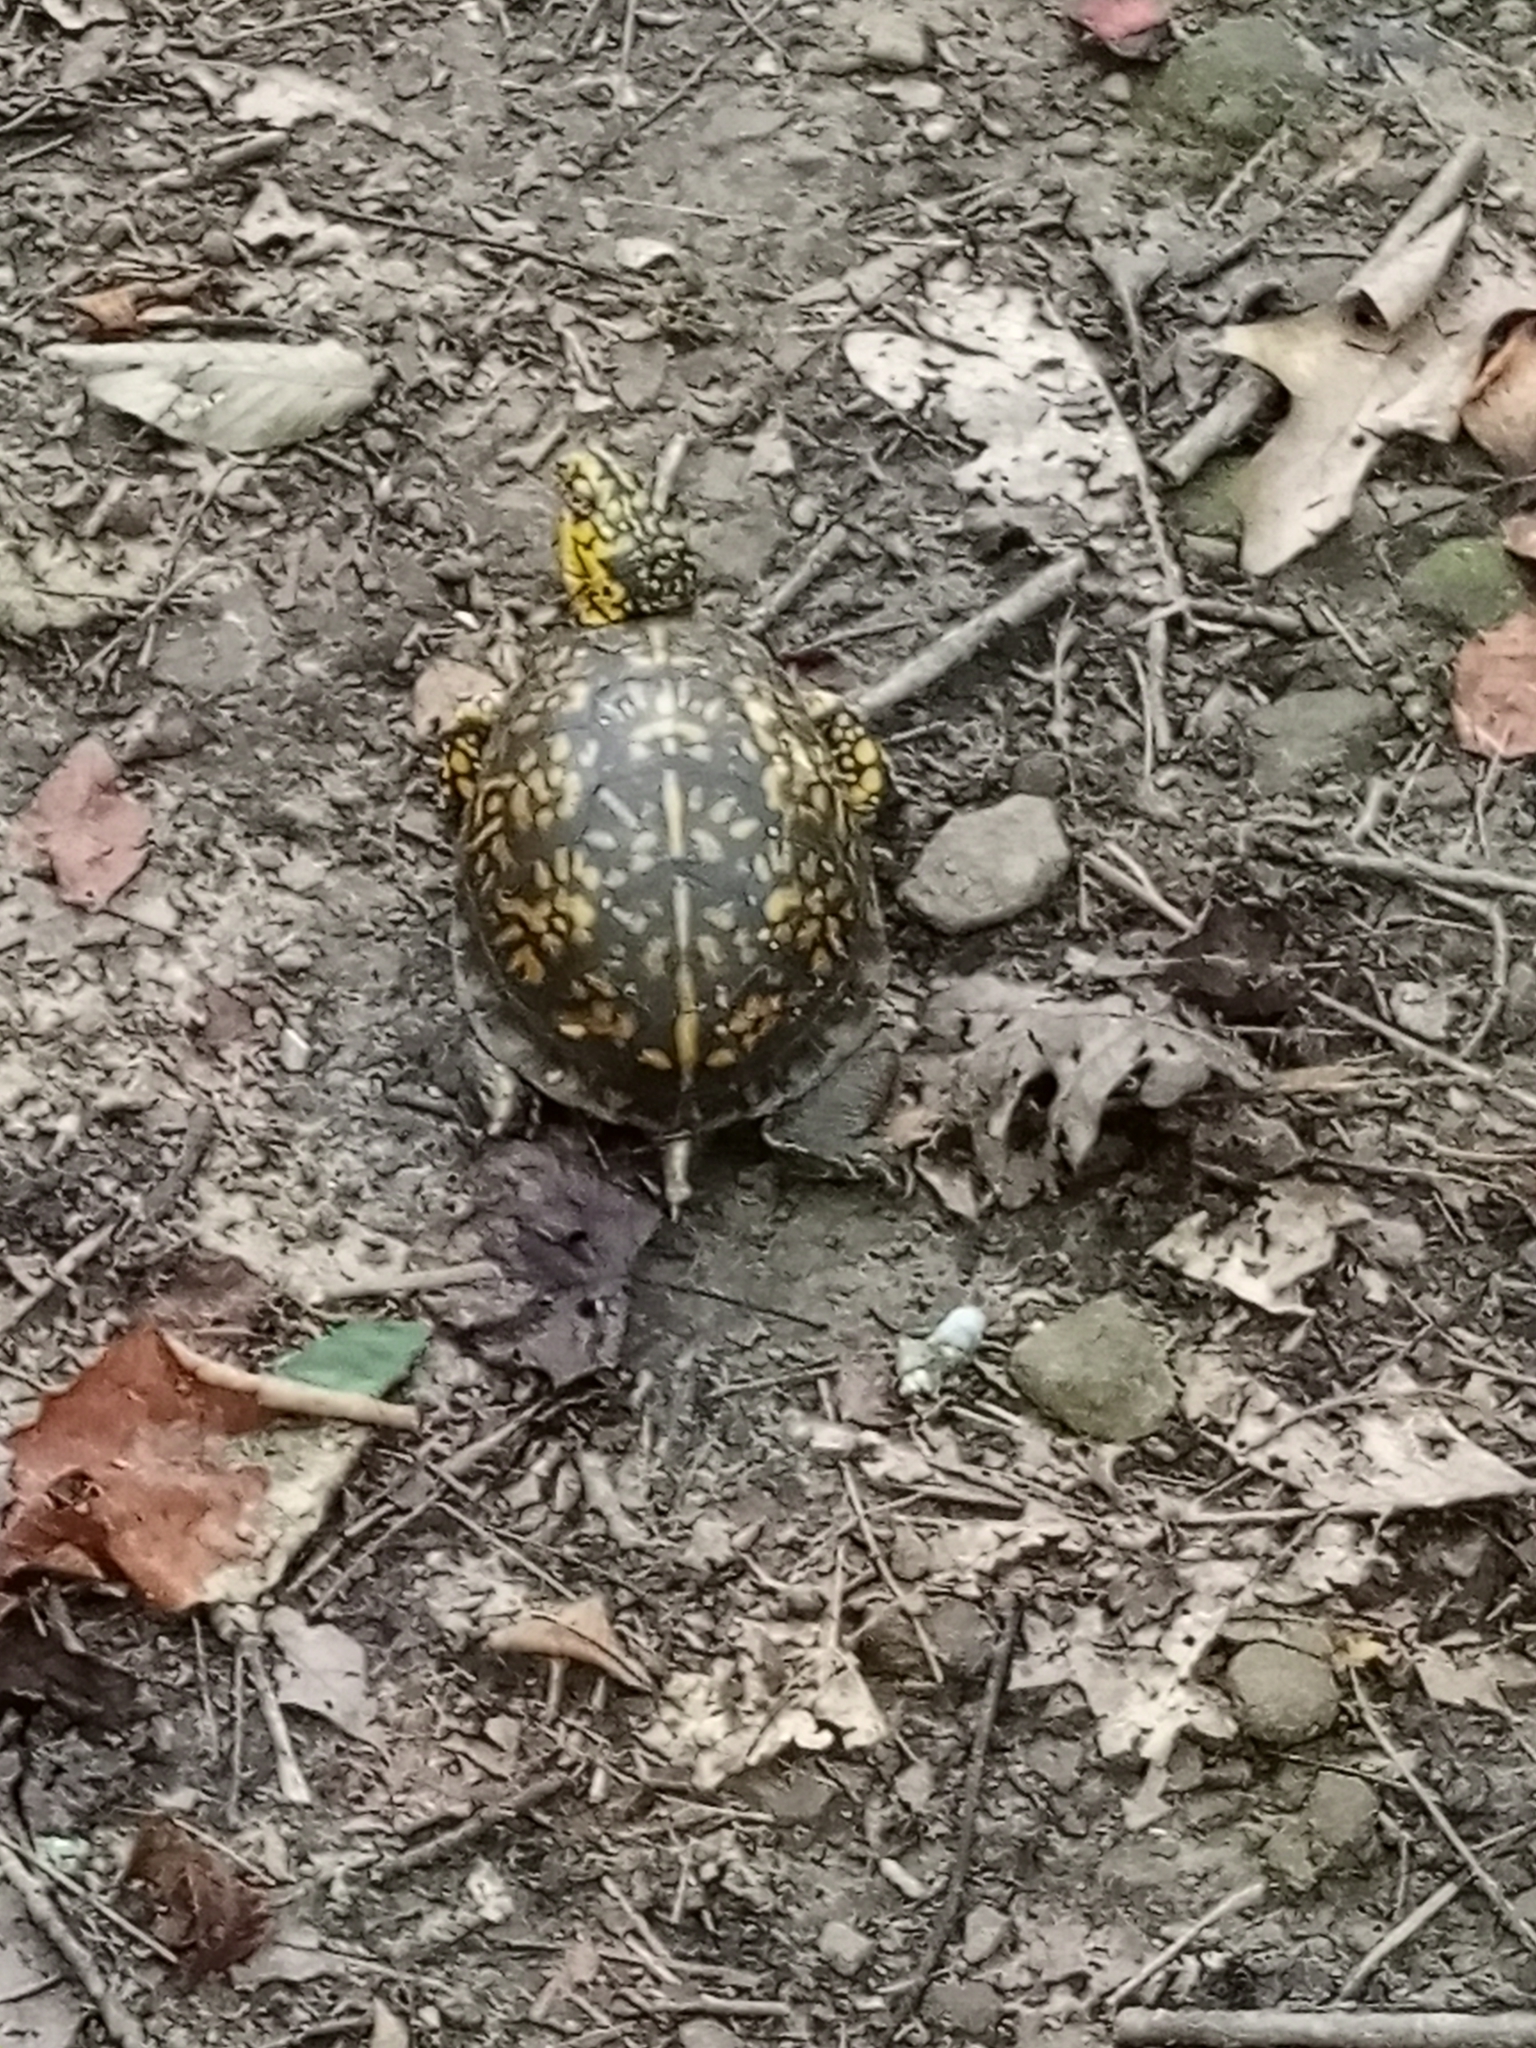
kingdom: Animalia
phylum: Chordata
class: Testudines
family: Emydidae
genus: Terrapene
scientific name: Terrapene carolina
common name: Common box turtle
